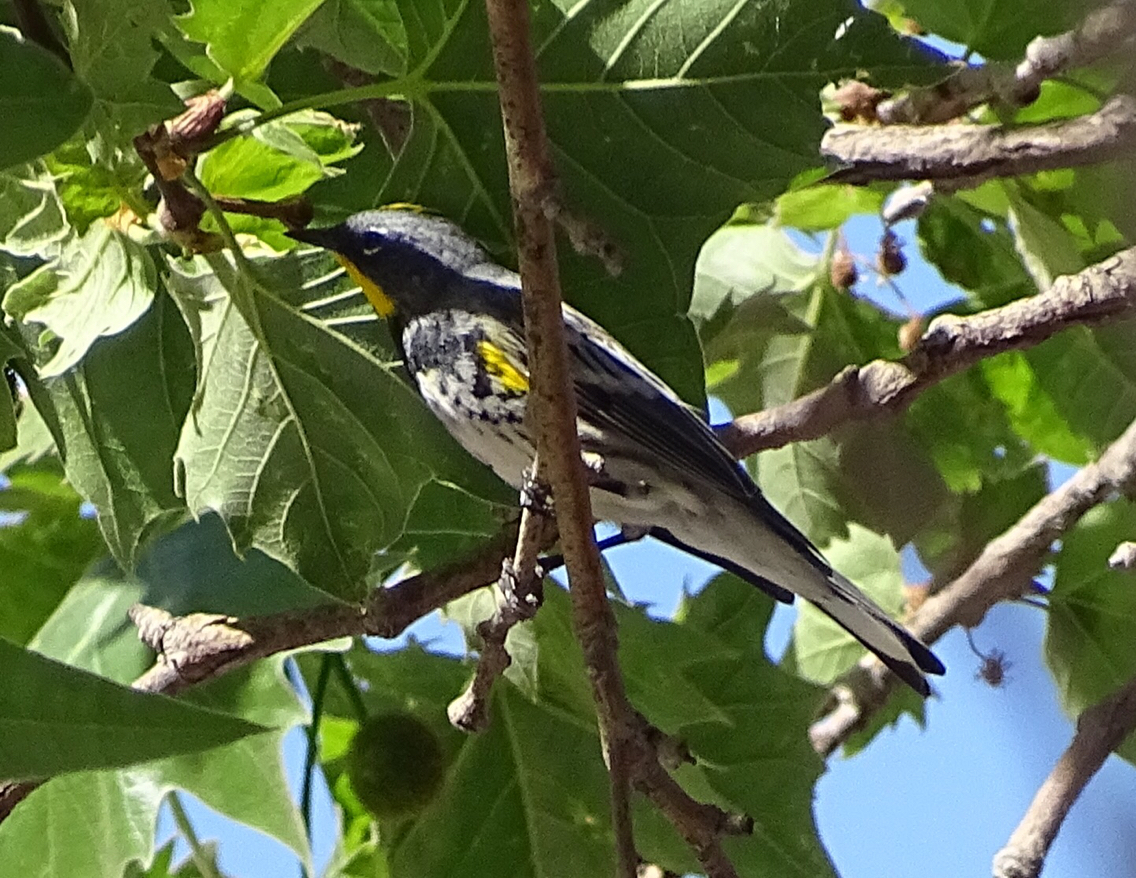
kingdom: Animalia
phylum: Chordata
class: Aves
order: Passeriformes
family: Parulidae
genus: Setophaga
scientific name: Setophaga coronata
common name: Myrtle warbler
